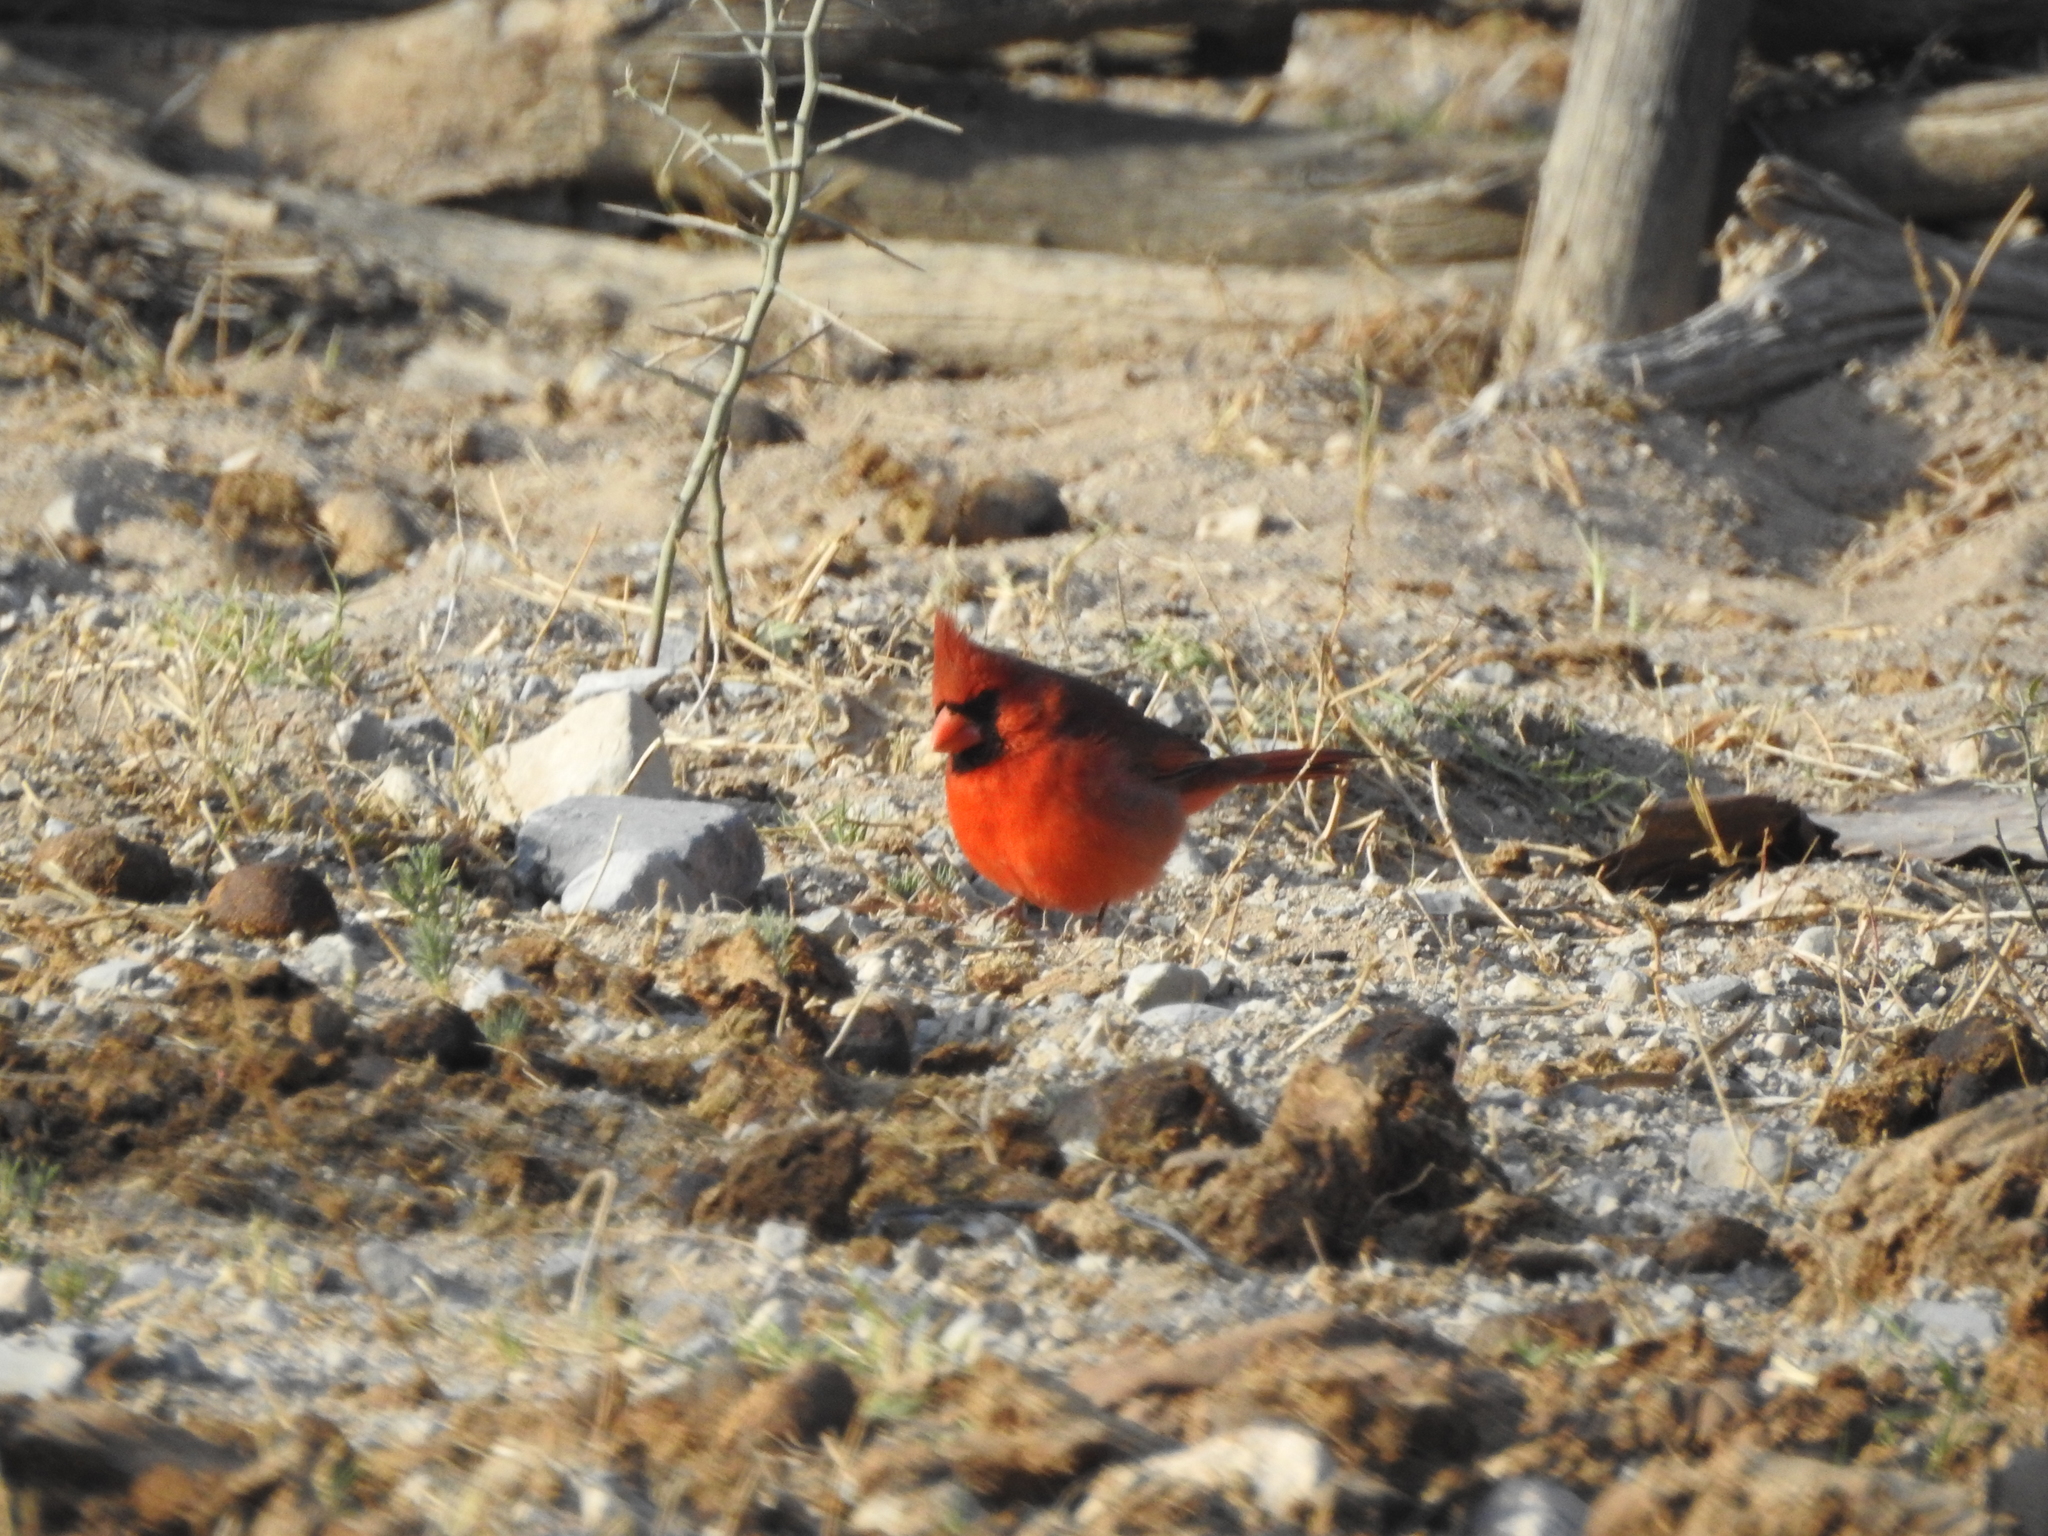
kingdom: Animalia
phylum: Chordata
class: Aves
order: Passeriformes
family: Cardinalidae
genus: Cardinalis
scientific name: Cardinalis cardinalis
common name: Northern cardinal
